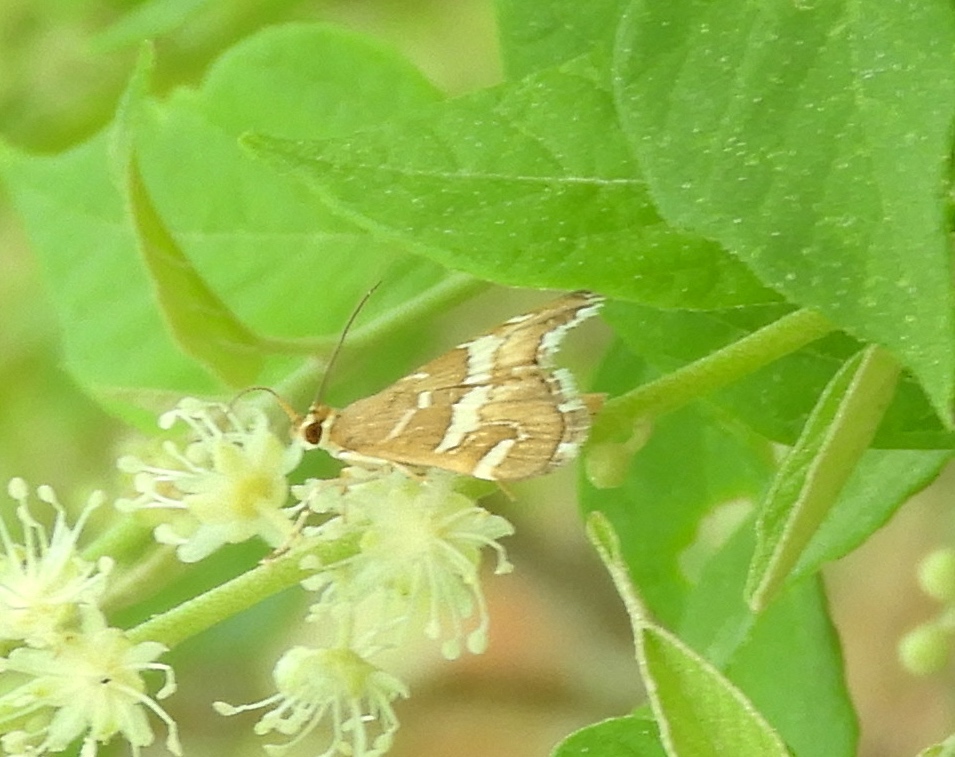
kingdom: Animalia
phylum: Arthropoda
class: Insecta
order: Lepidoptera
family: Crambidae
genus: Spoladea
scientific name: Spoladea recurvalis
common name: Beet webworm moth
